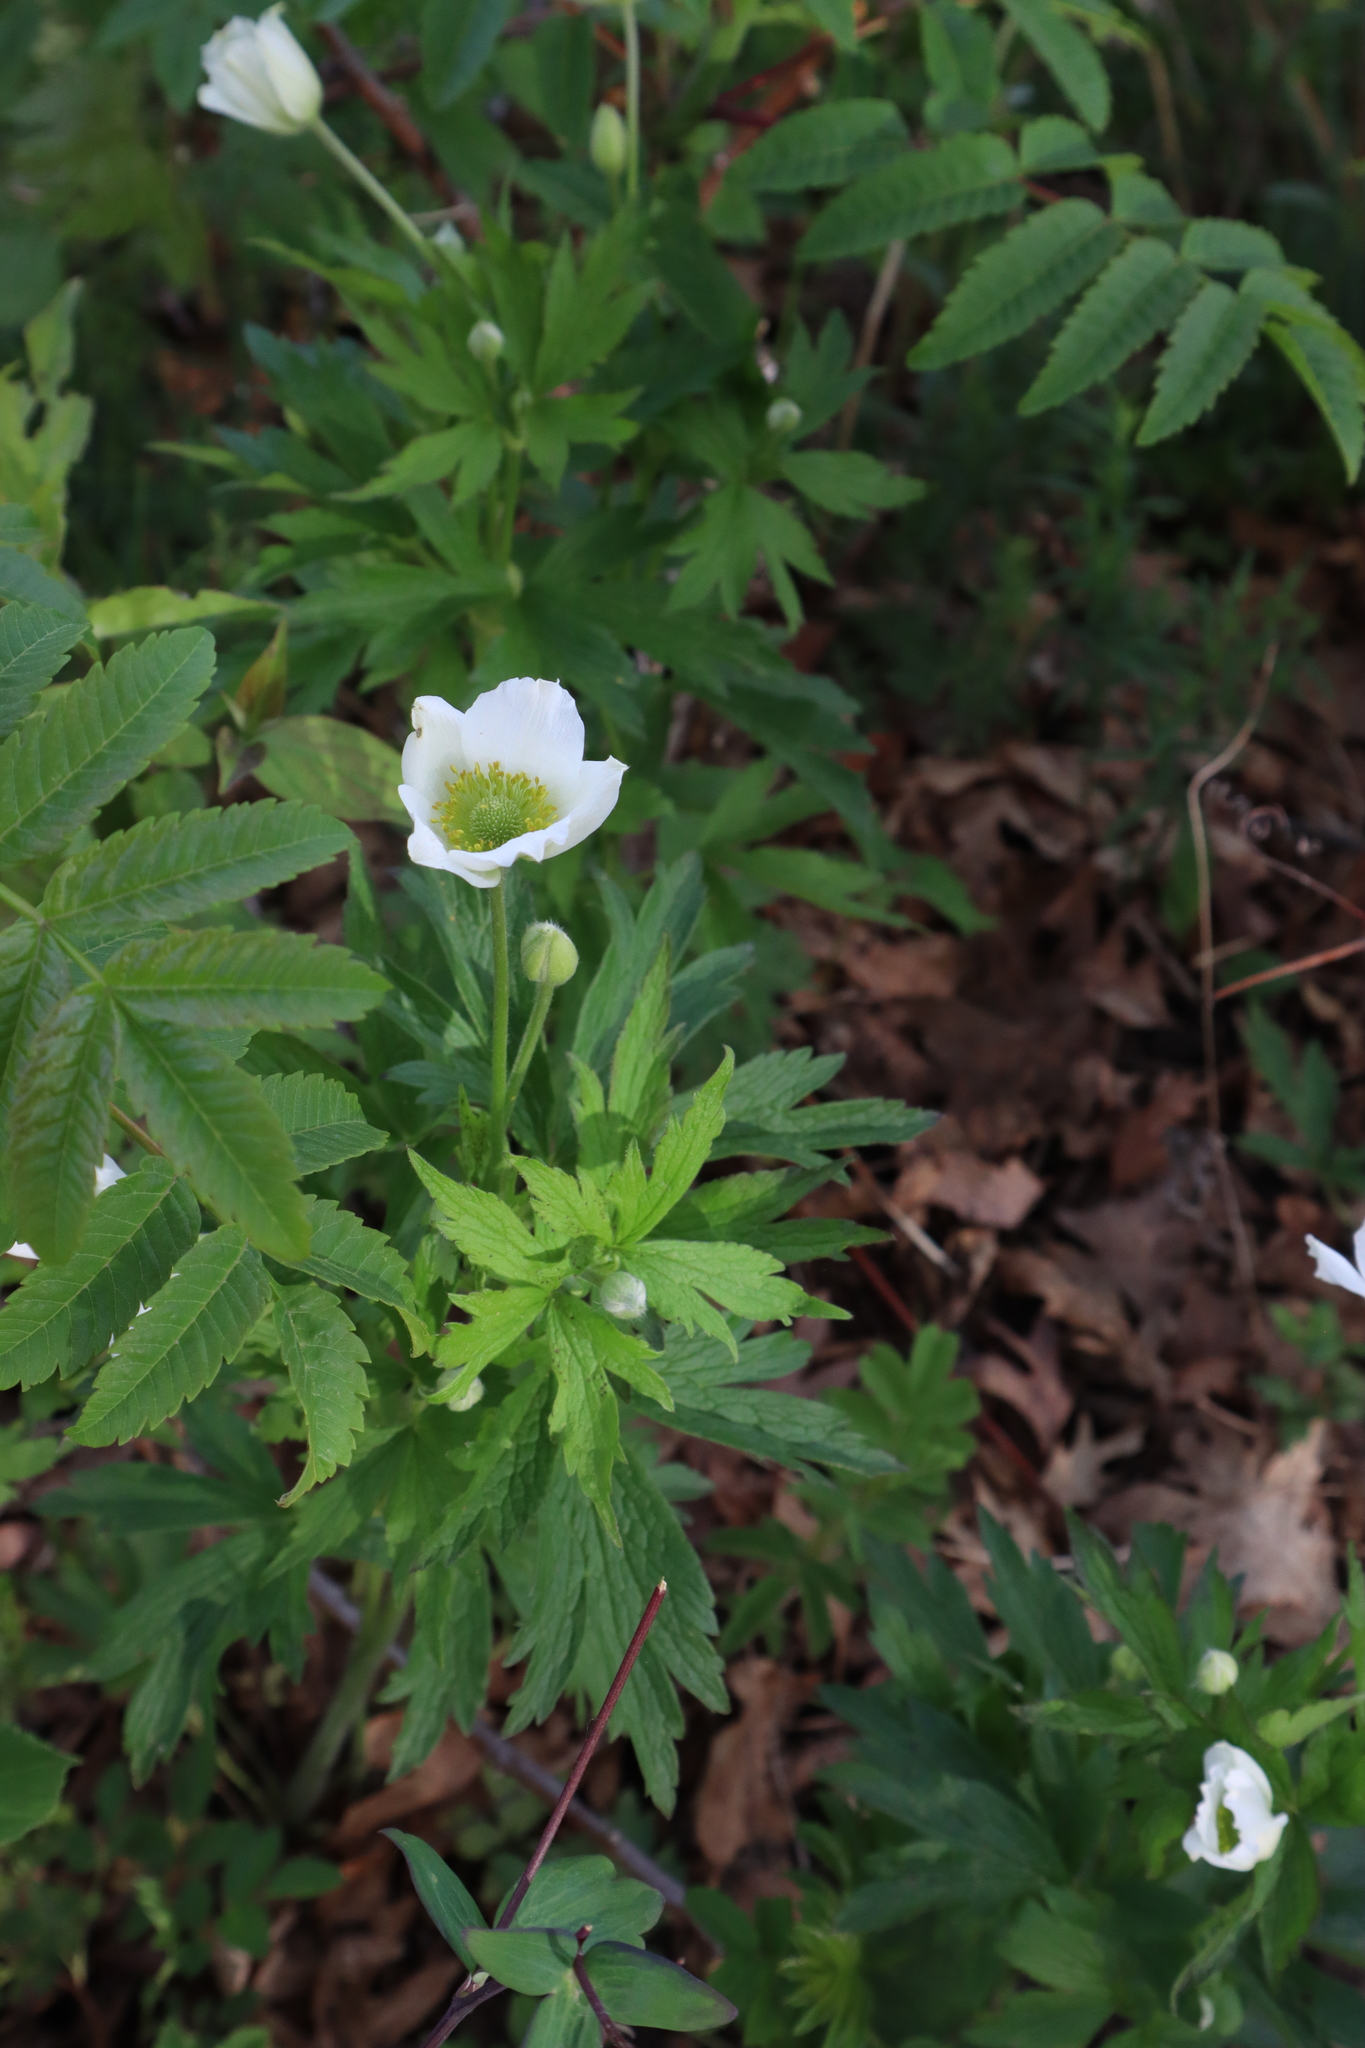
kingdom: Plantae
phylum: Tracheophyta
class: Magnoliopsida
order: Ranunculales
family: Ranunculaceae
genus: Anemone
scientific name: Anemone virginiana
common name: Tall anemone
